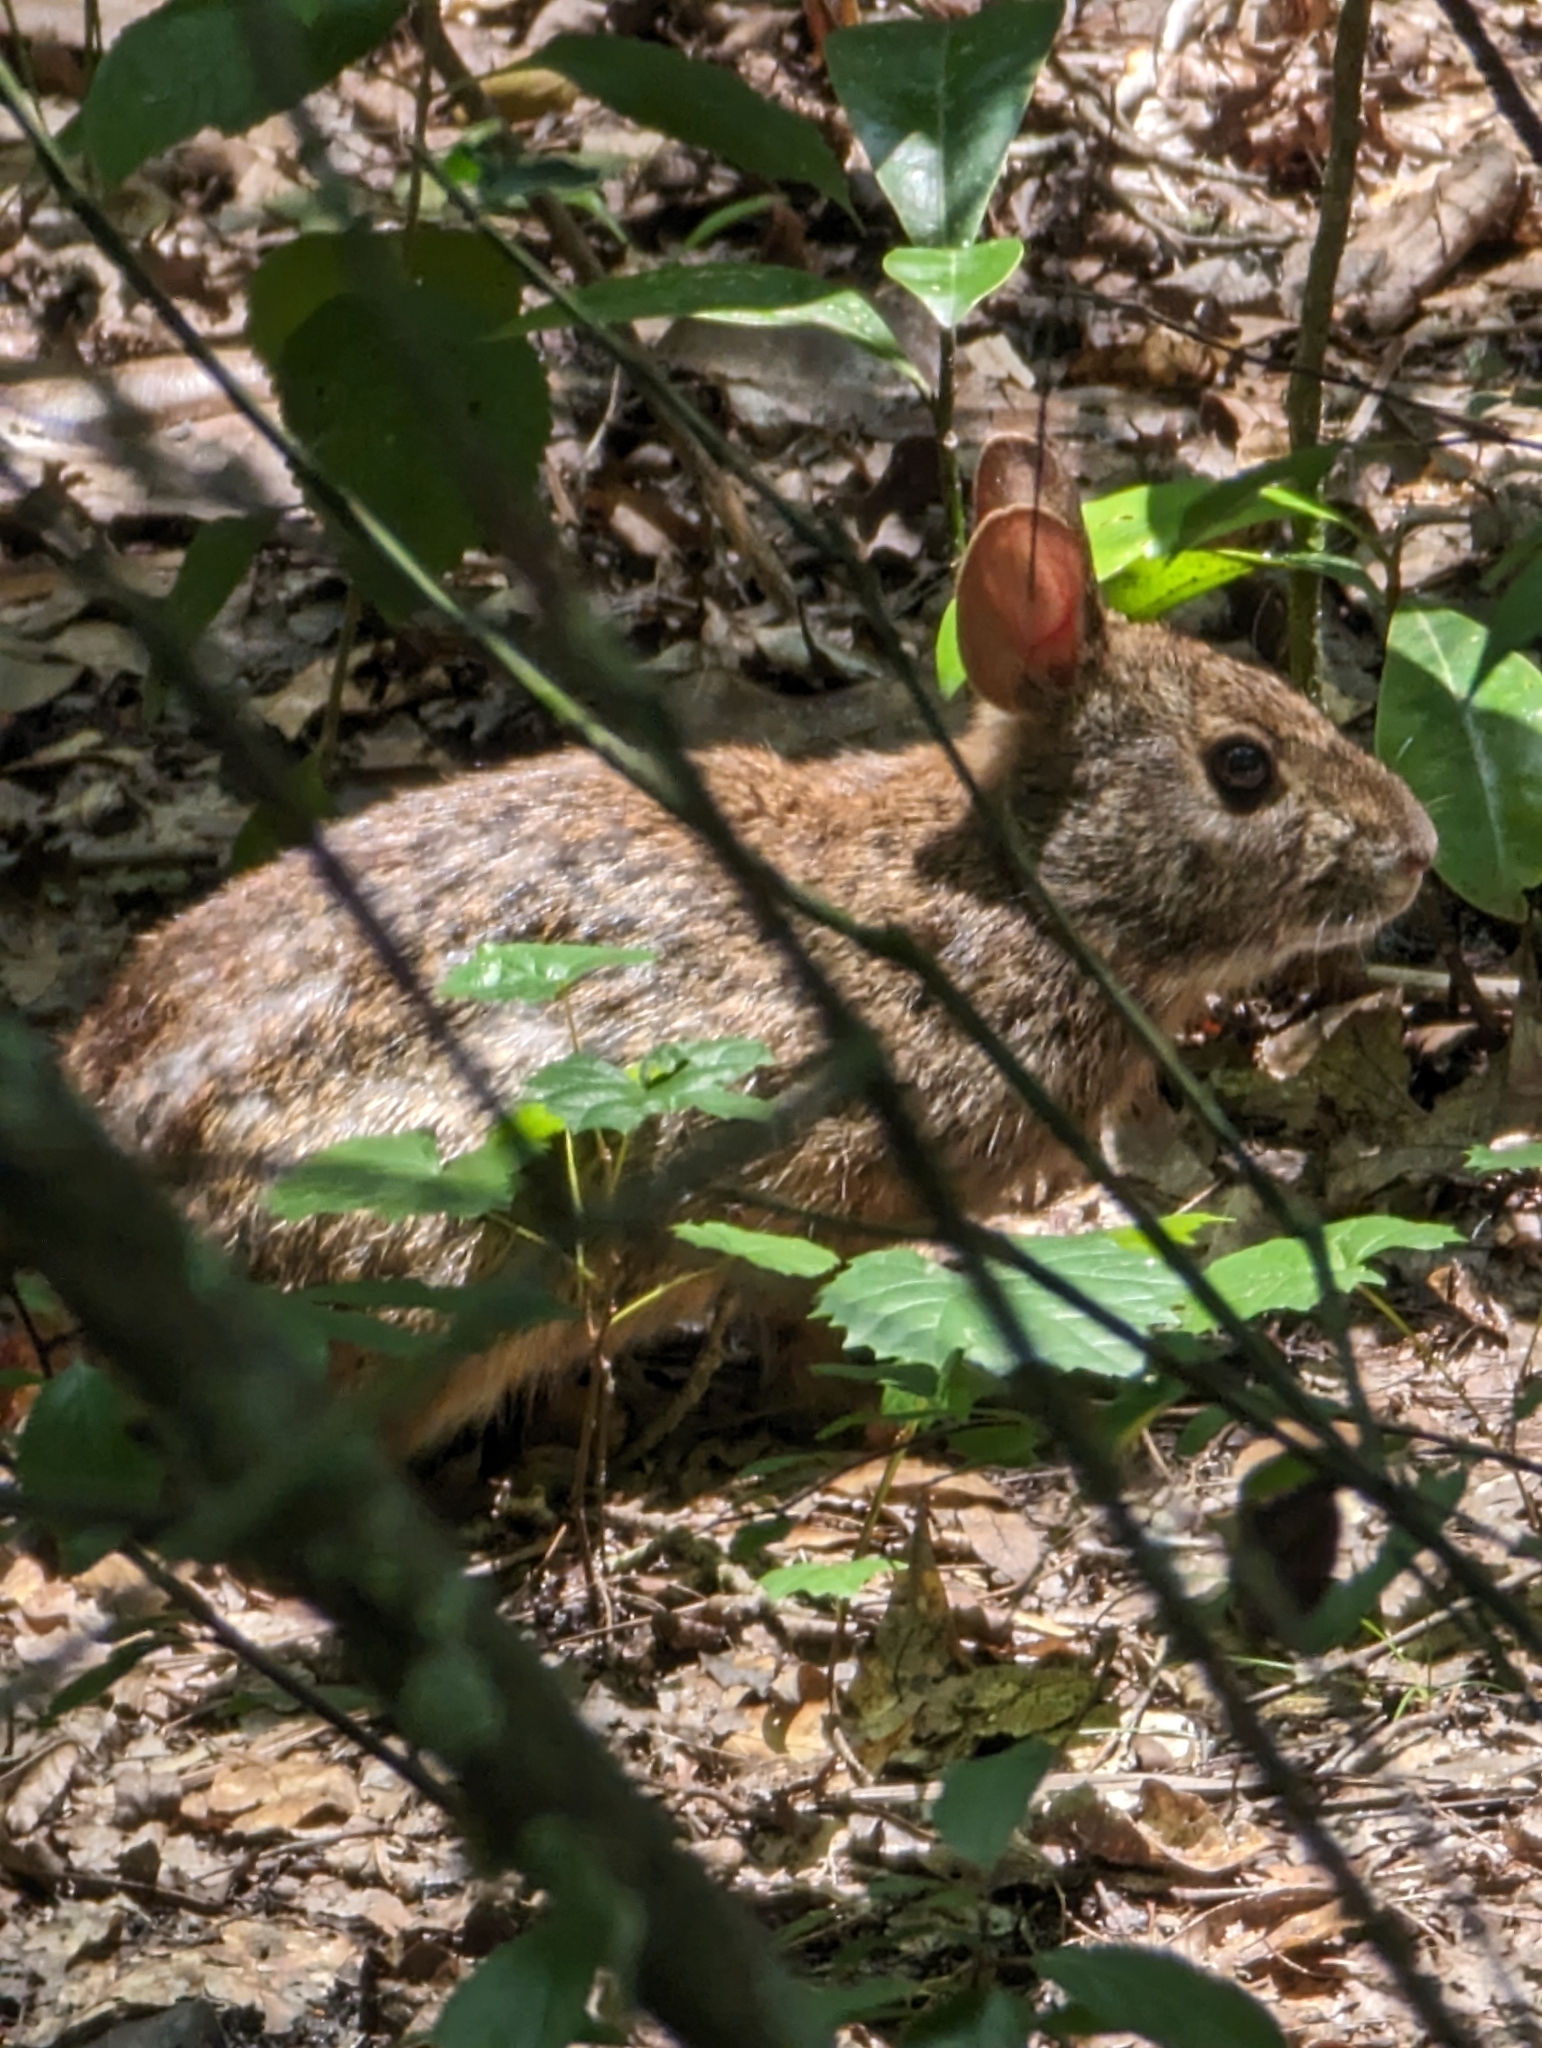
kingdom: Animalia
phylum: Chordata
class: Mammalia
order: Lagomorpha
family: Leporidae
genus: Sylvilagus
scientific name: Sylvilagus palustris
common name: Marsh rabbit
